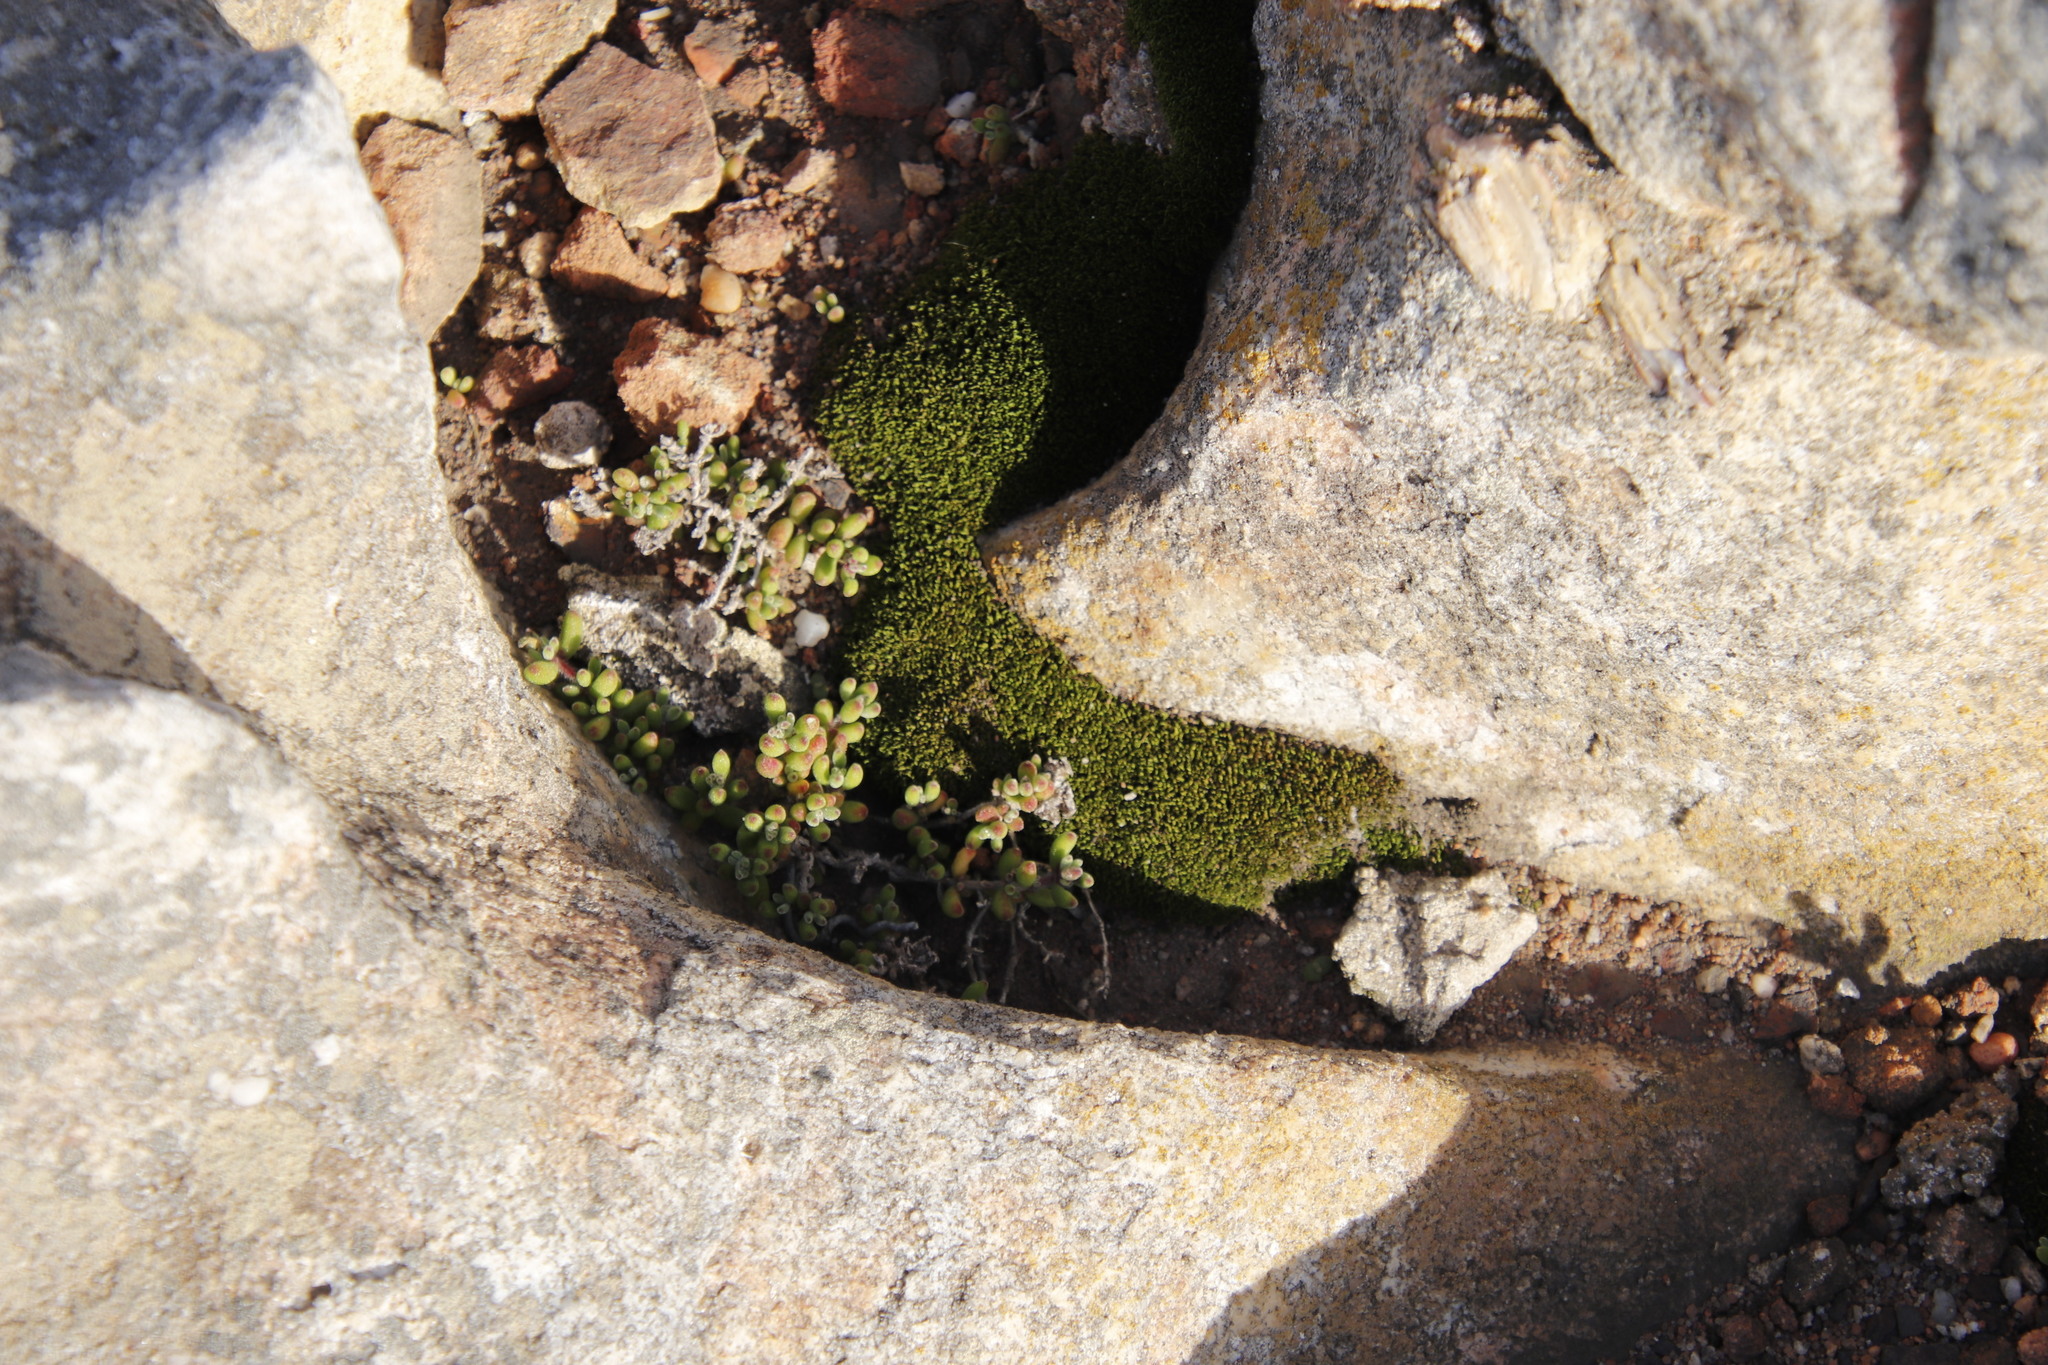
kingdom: Plantae
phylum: Tracheophyta
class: Magnoliopsida
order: Caryophyllales
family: Aizoaceae
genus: Drosanthemum
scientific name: Drosanthemum stokoei
